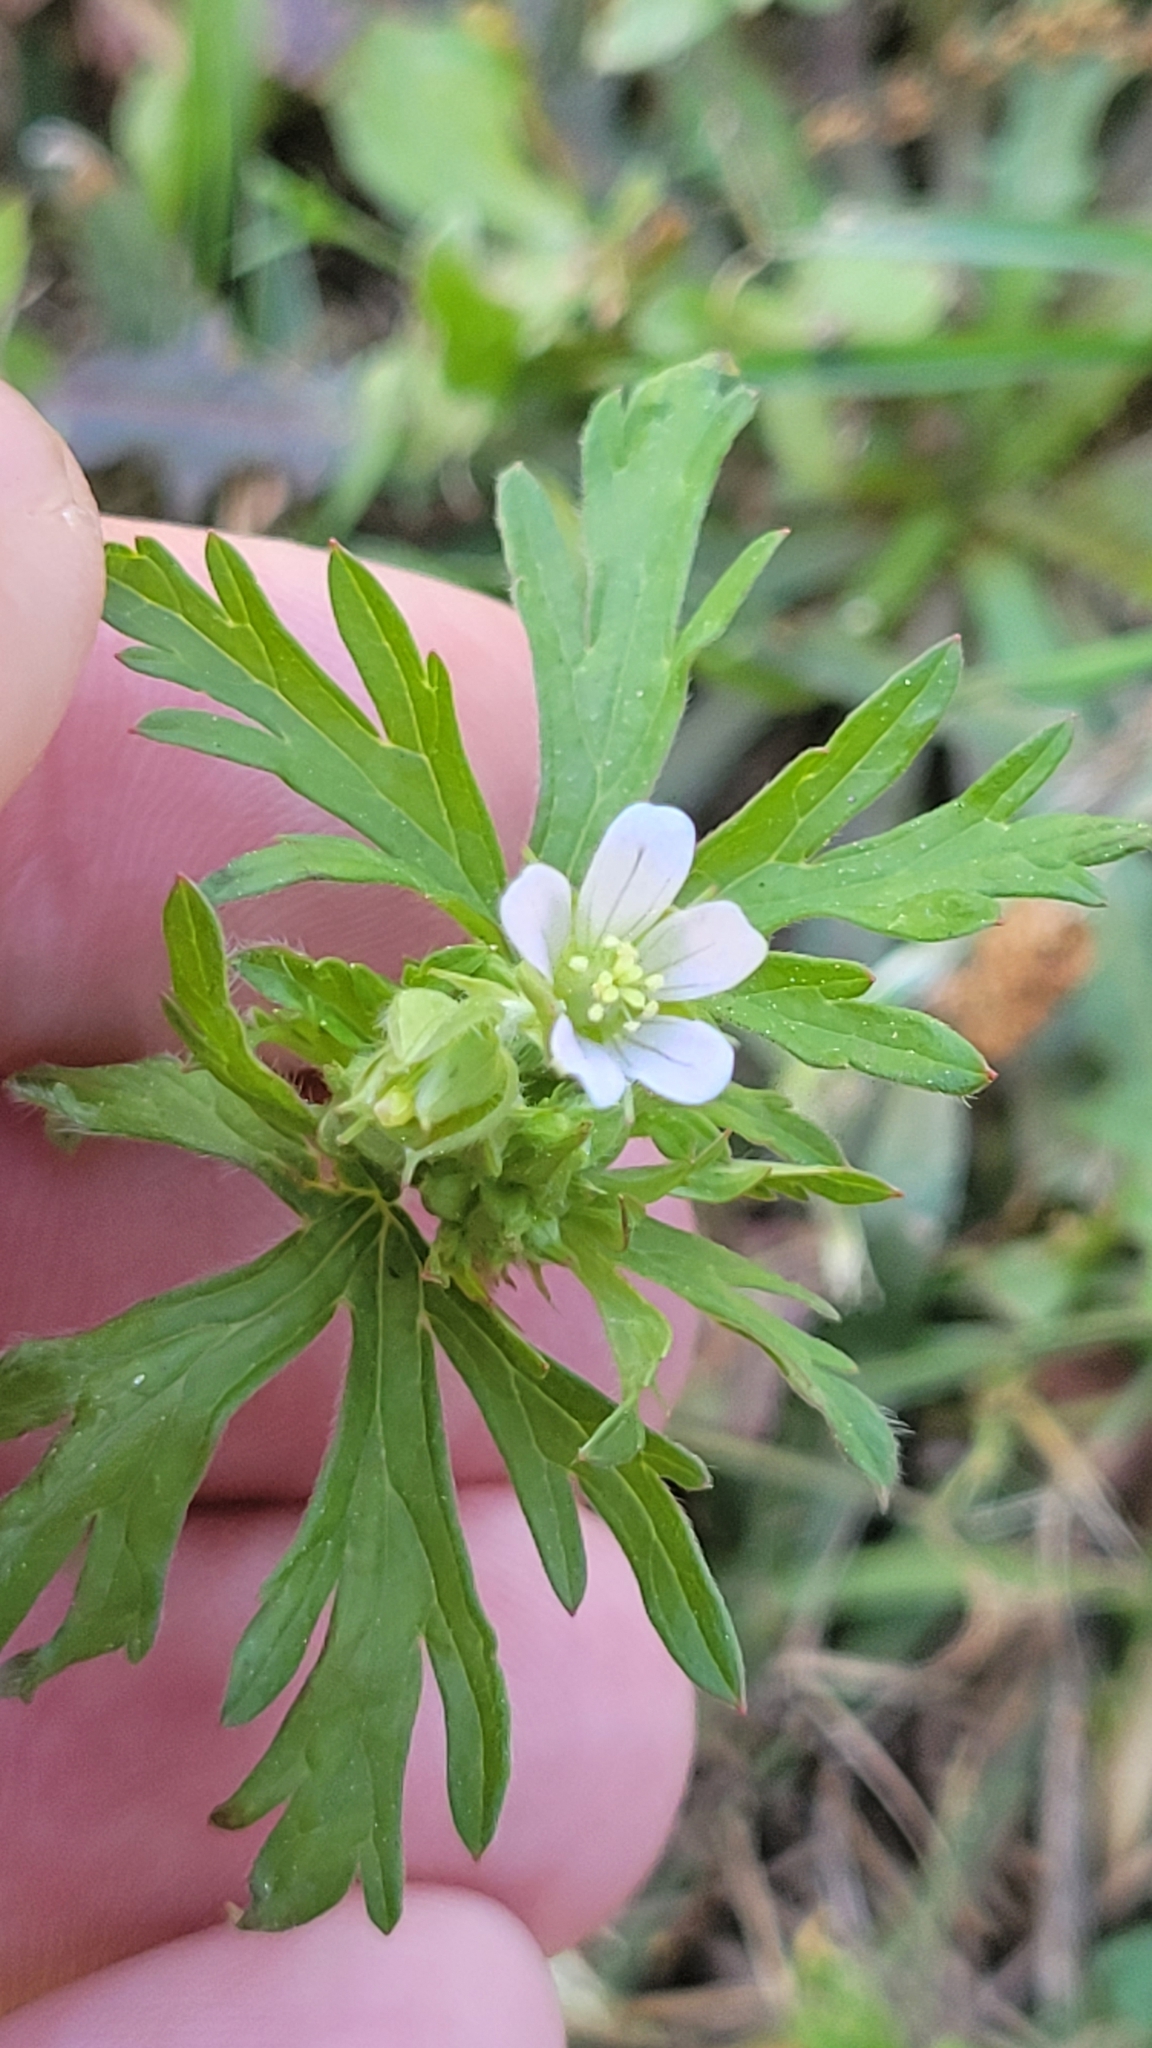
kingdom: Plantae
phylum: Tracheophyta
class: Magnoliopsida
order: Geraniales
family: Geraniaceae
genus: Geranium
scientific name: Geranium carolinianum
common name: Carolina crane's-bill
